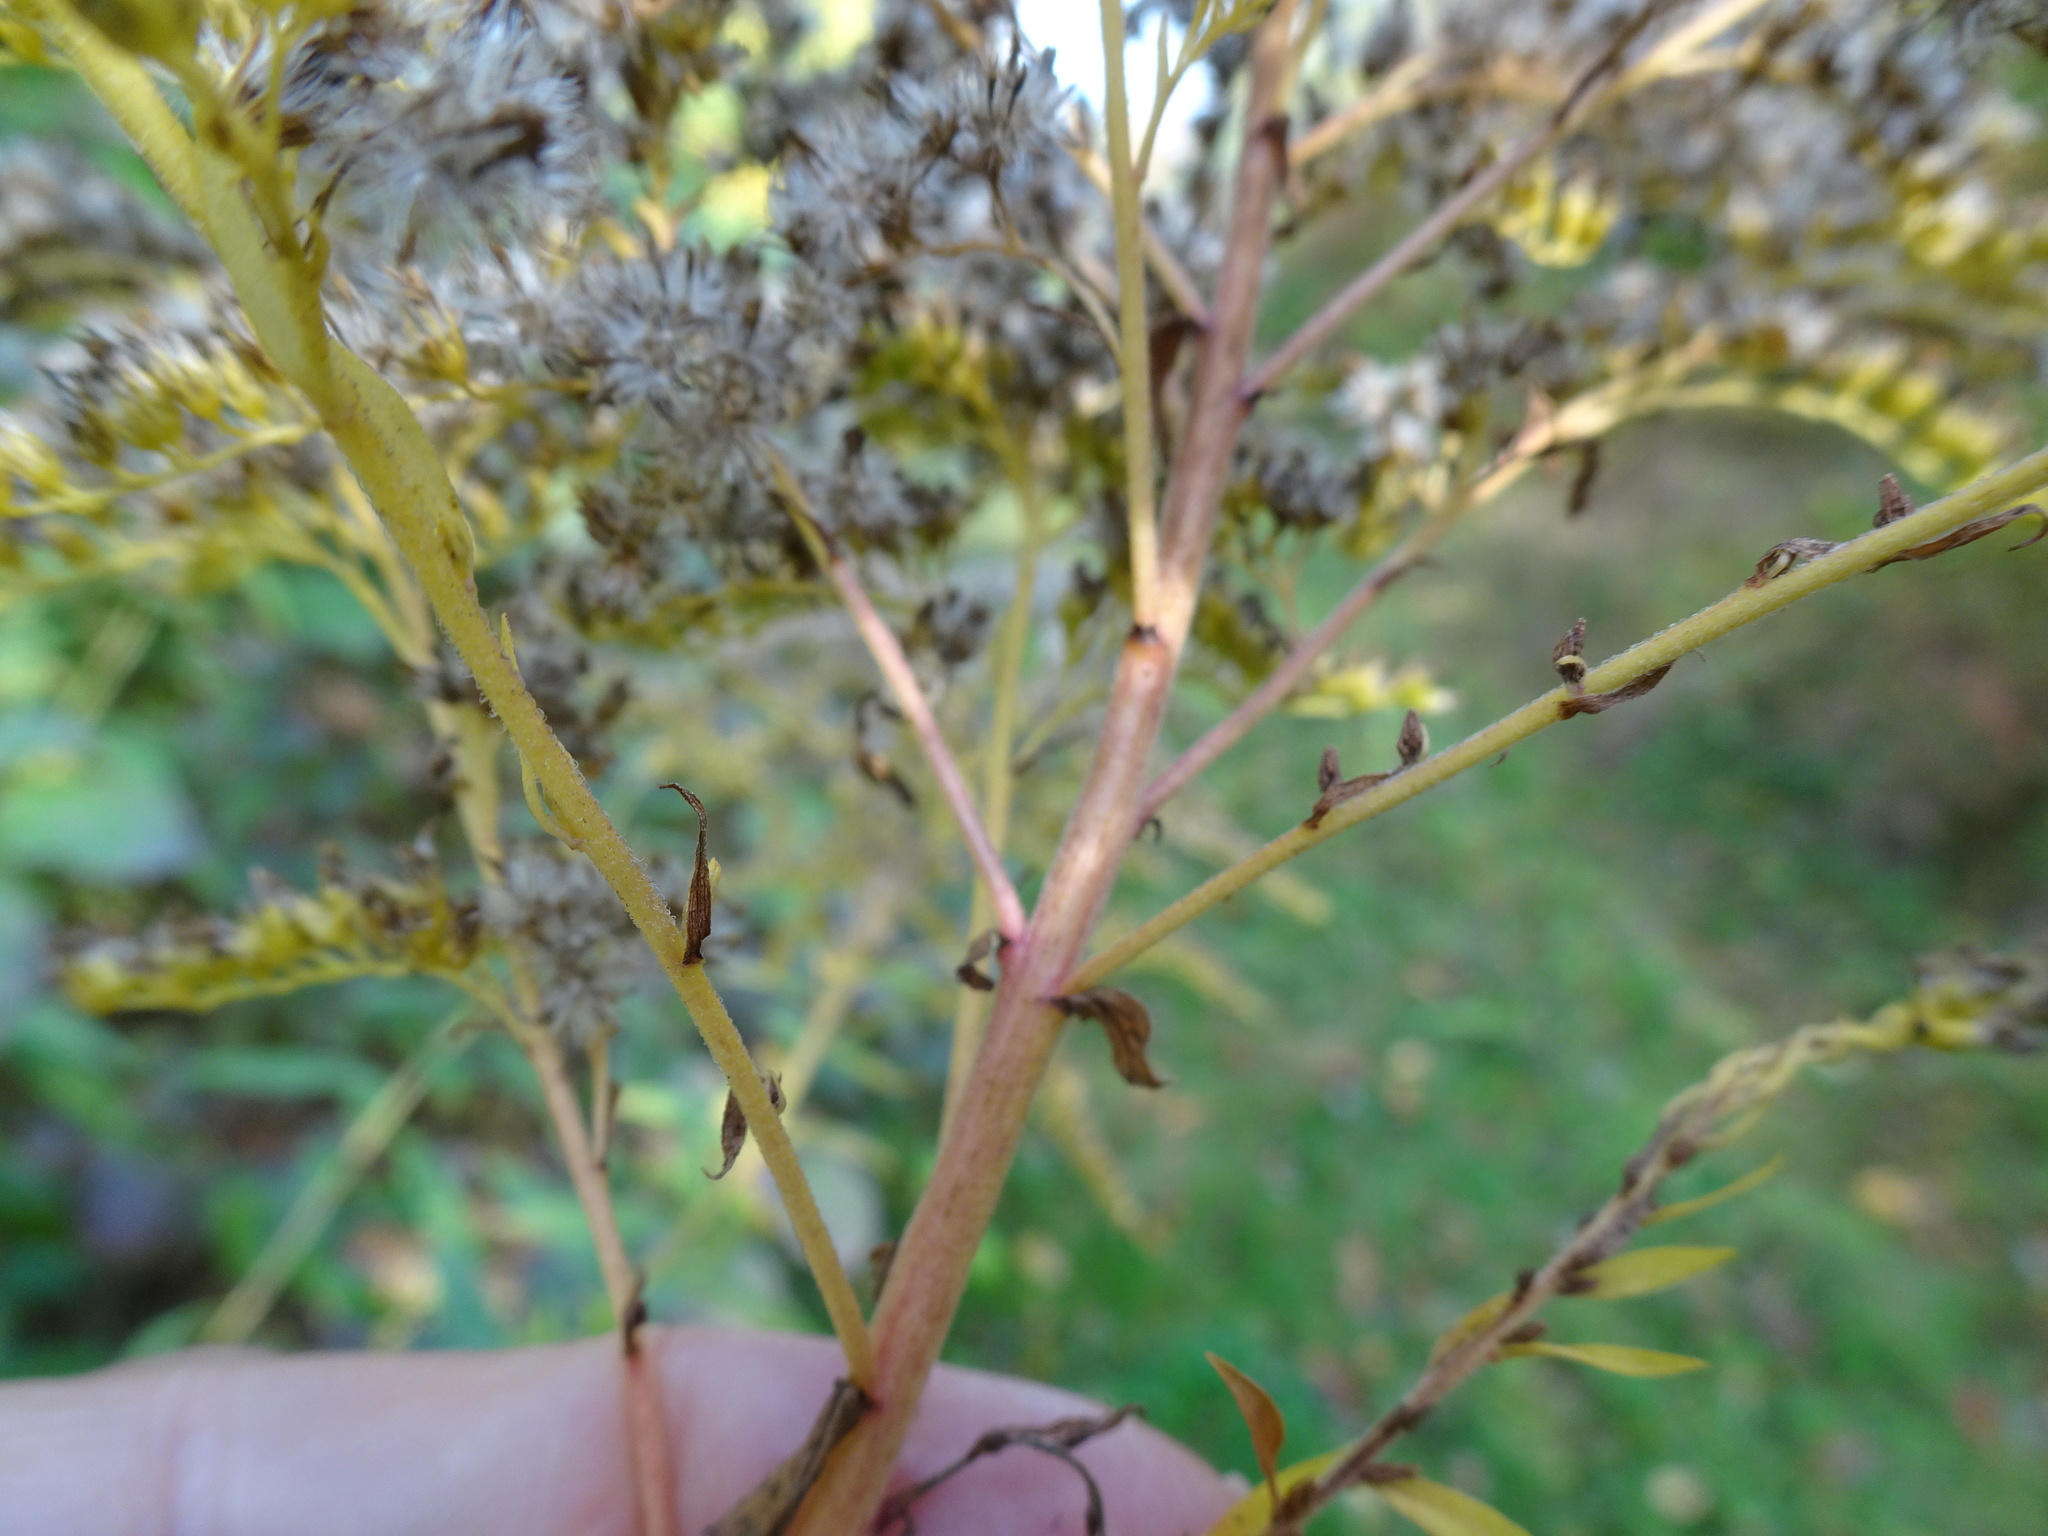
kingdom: Plantae
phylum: Tracheophyta
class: Magnoliopsida
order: Asterales
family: Asteraceae
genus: Solidago
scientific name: Solidago canadensis
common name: Canada goldenrod
